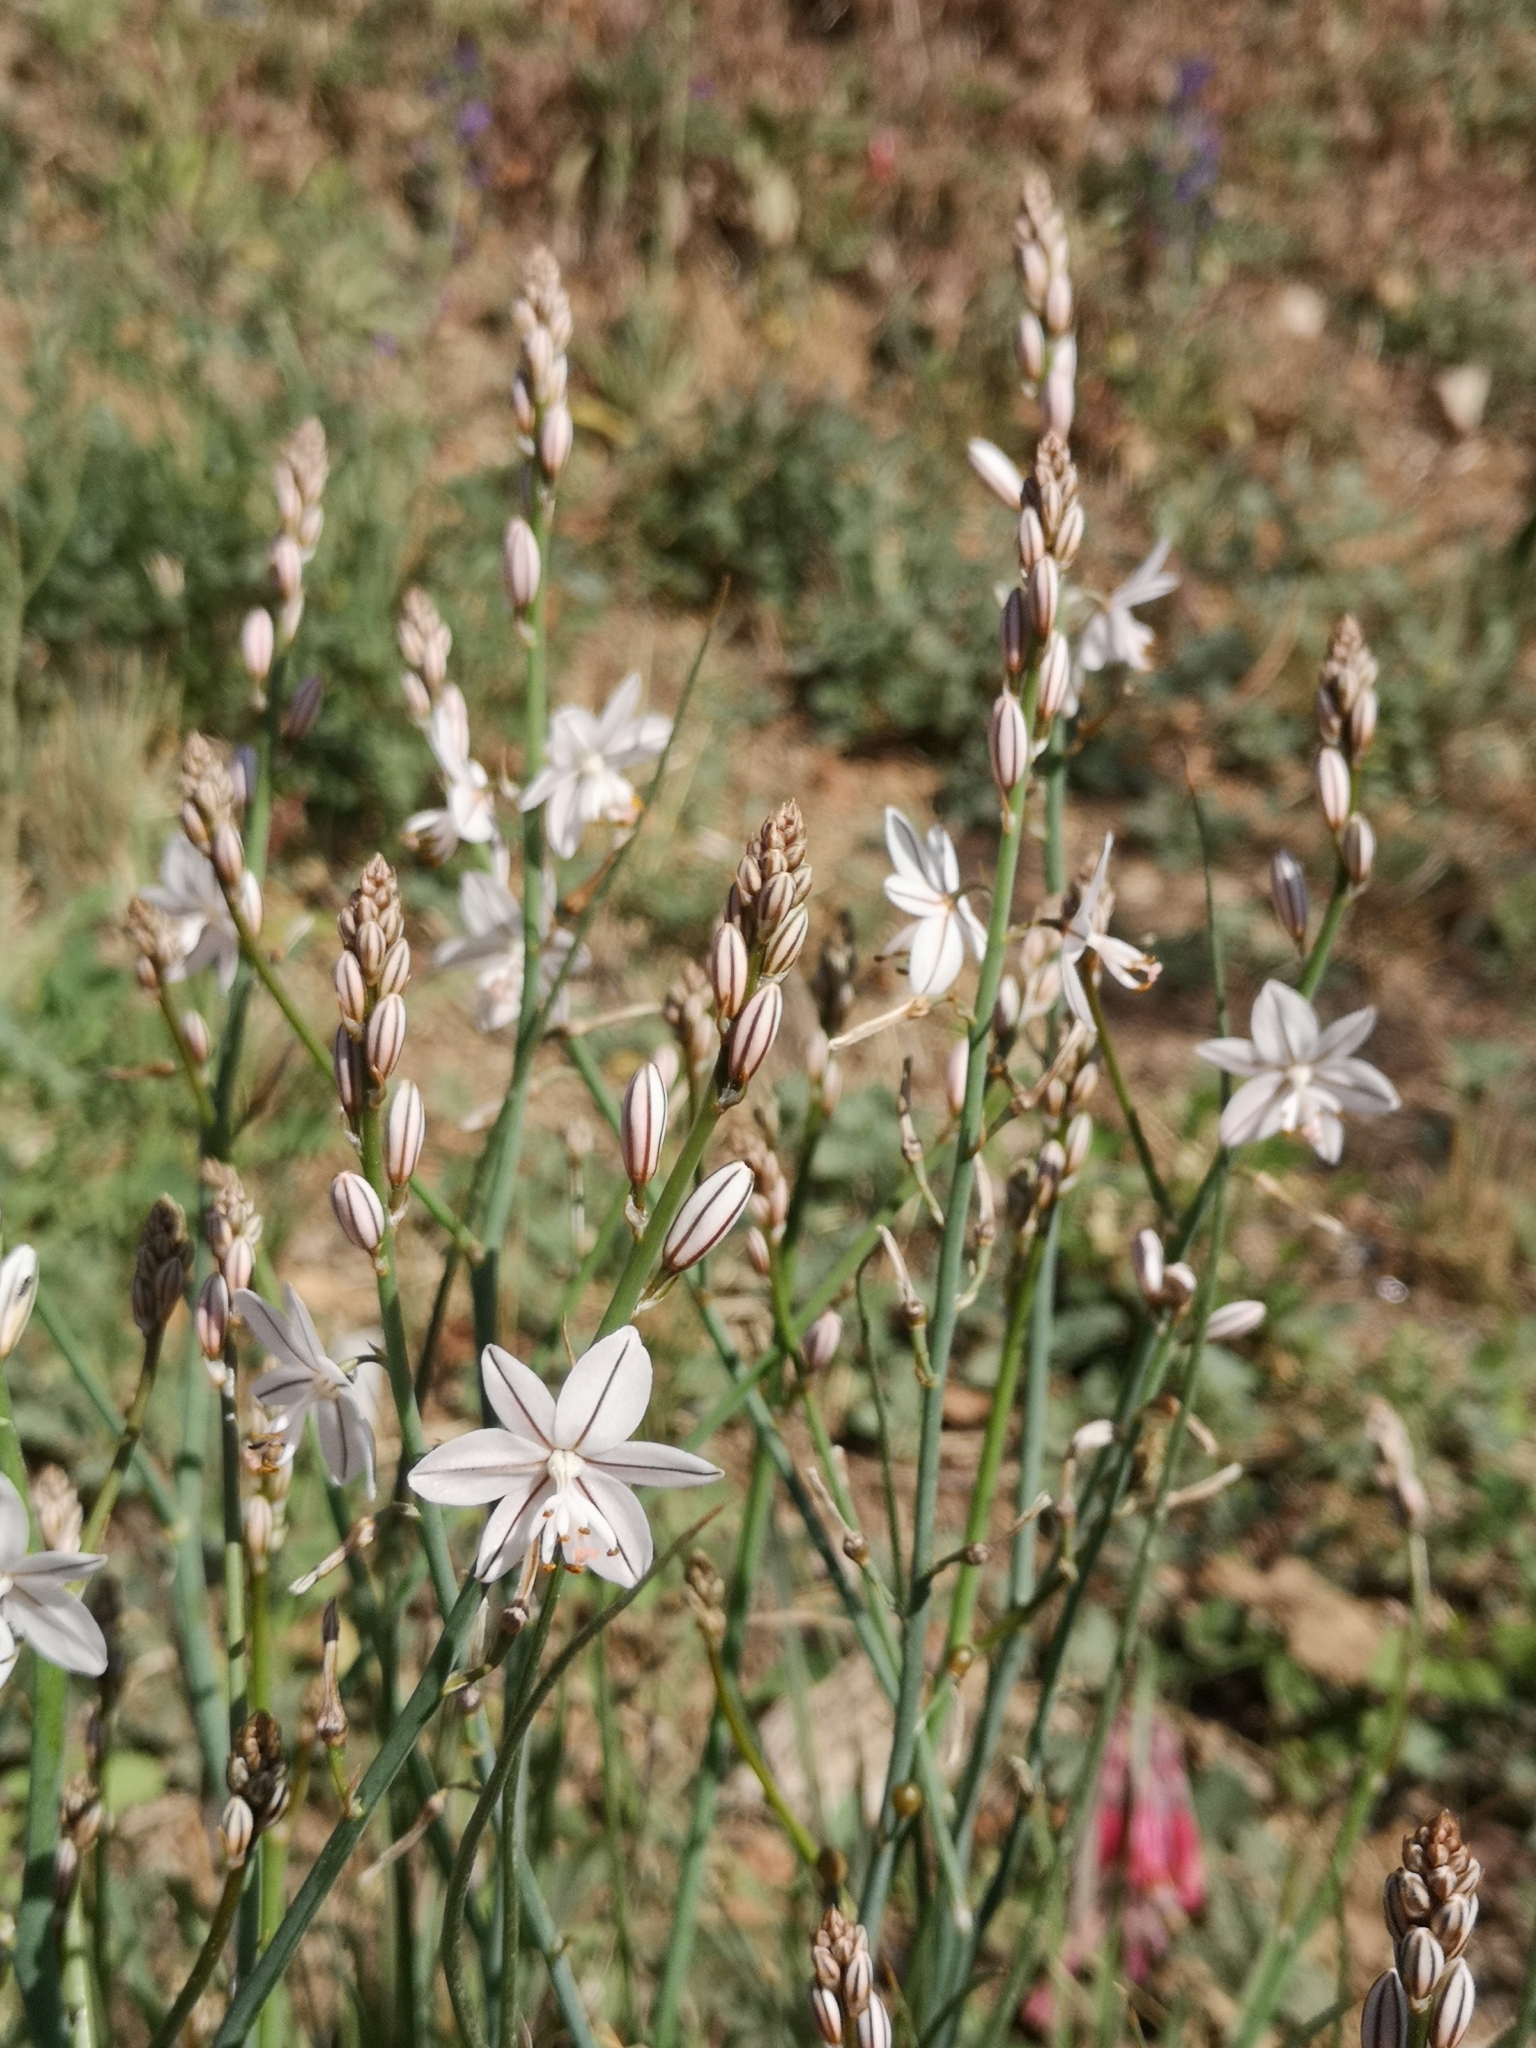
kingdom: Plantae
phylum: Tracheophyta
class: Liliopsida
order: Asparagales
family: Asphodelaceae
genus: Asphodelus
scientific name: Asphodelus fistulosus
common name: Onionweed
